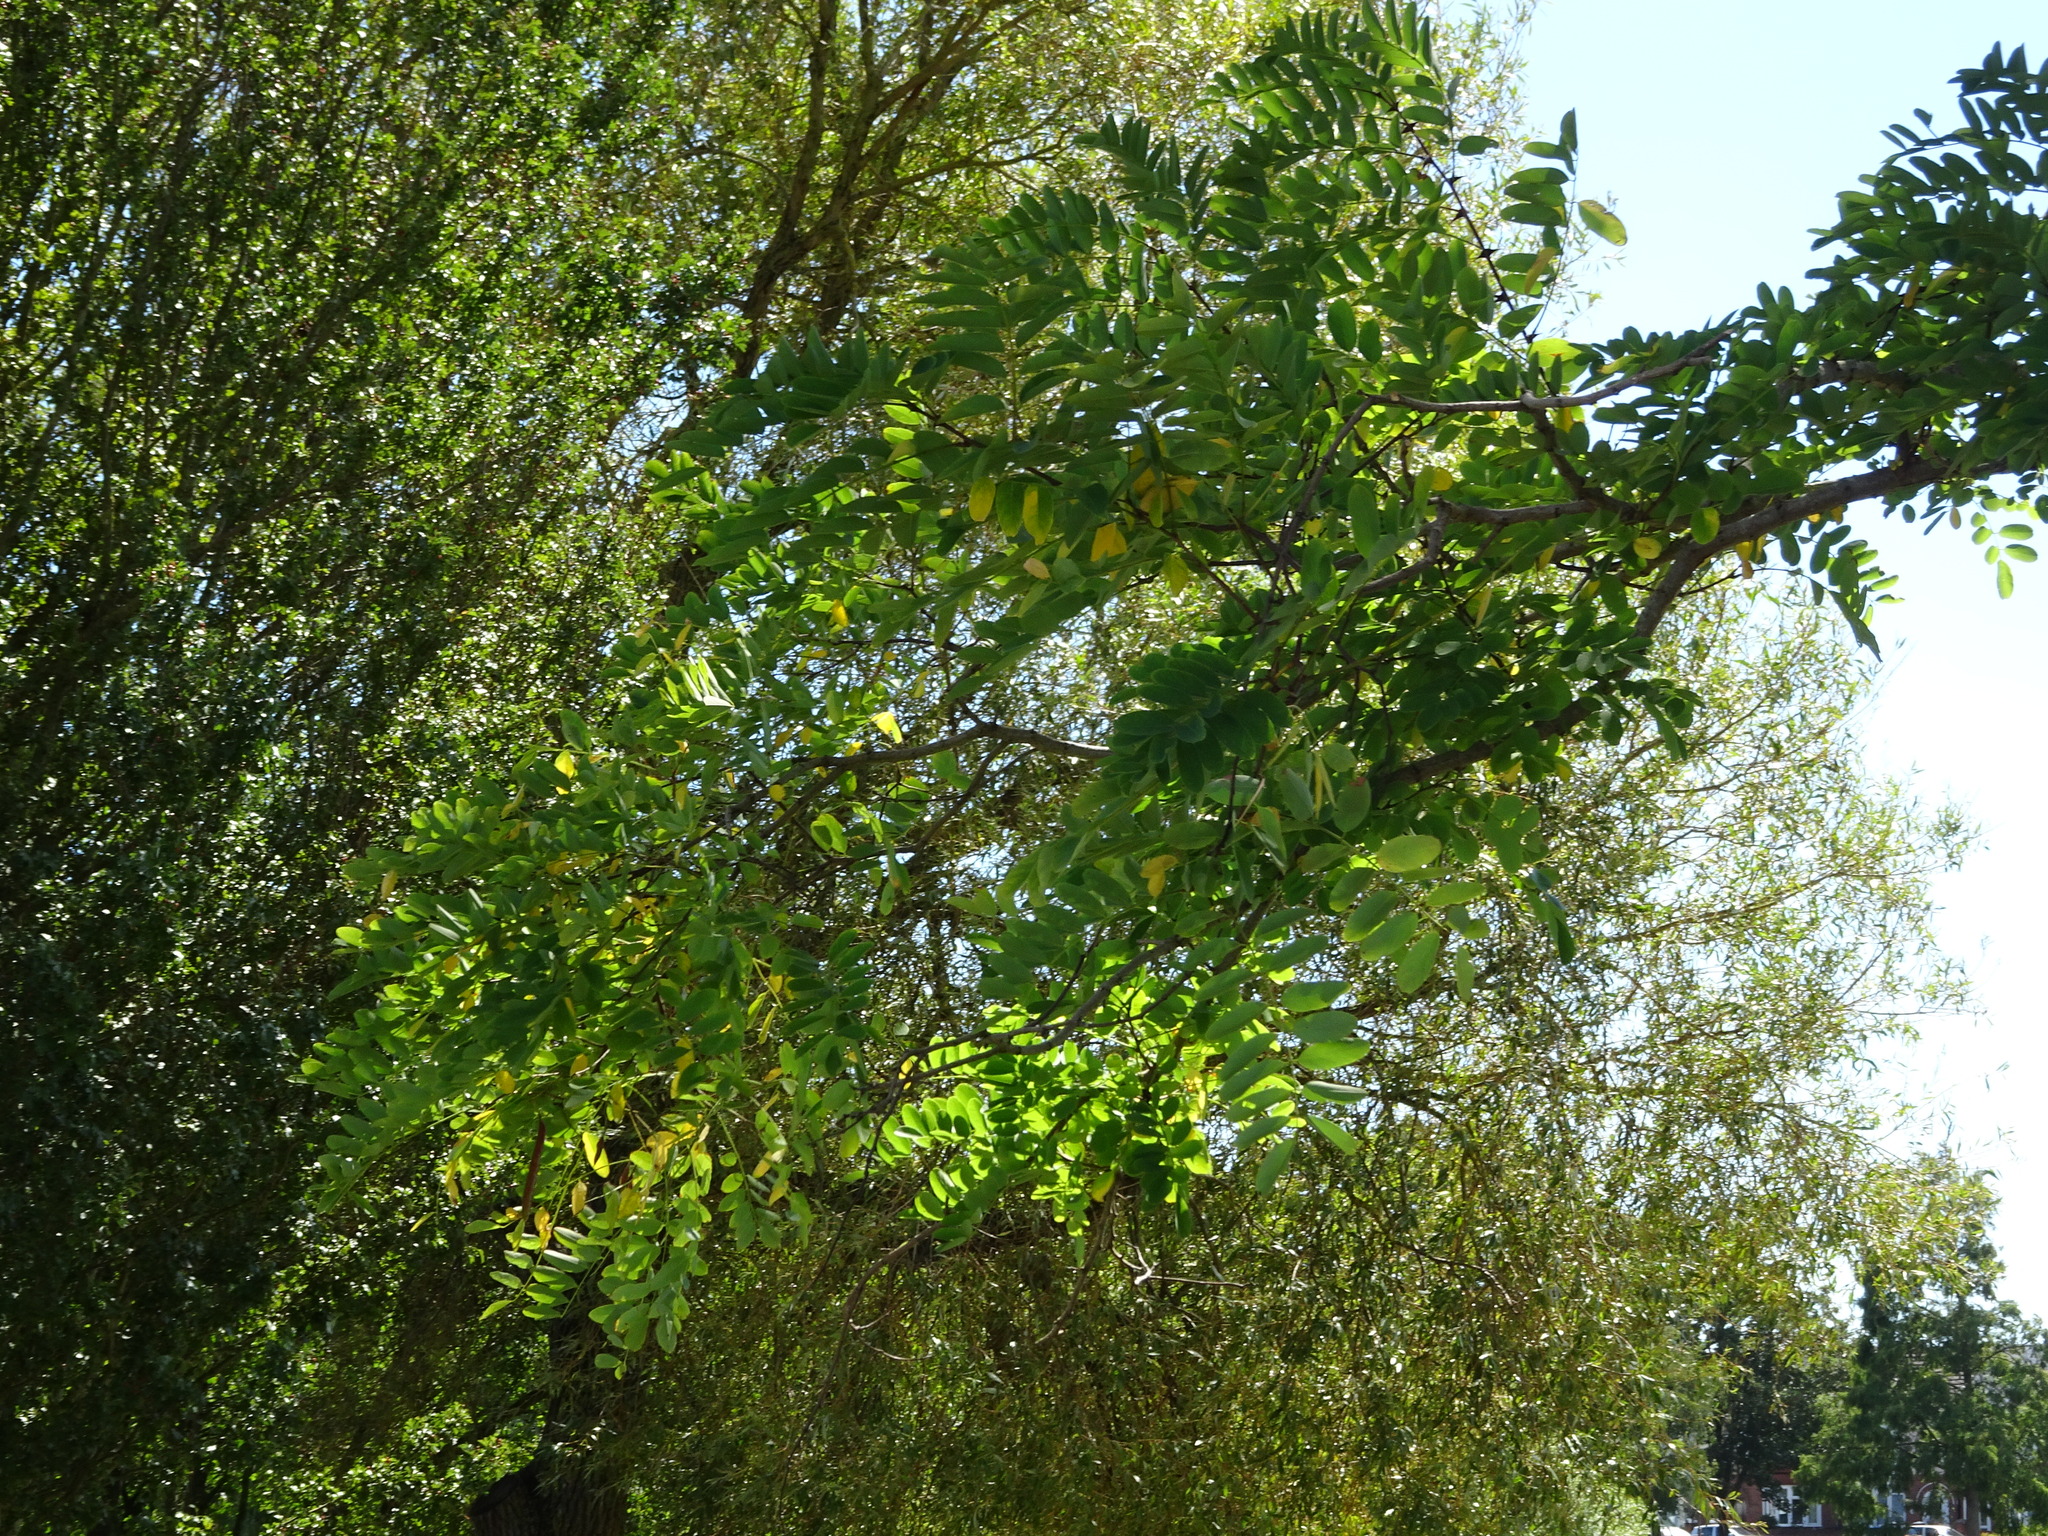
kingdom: Plantae
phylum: Tracheophyta
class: Magnoliopsida
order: Fabales
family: Fabaceae
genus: Robinia
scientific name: Robinia pseudoacacia
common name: Black locust
